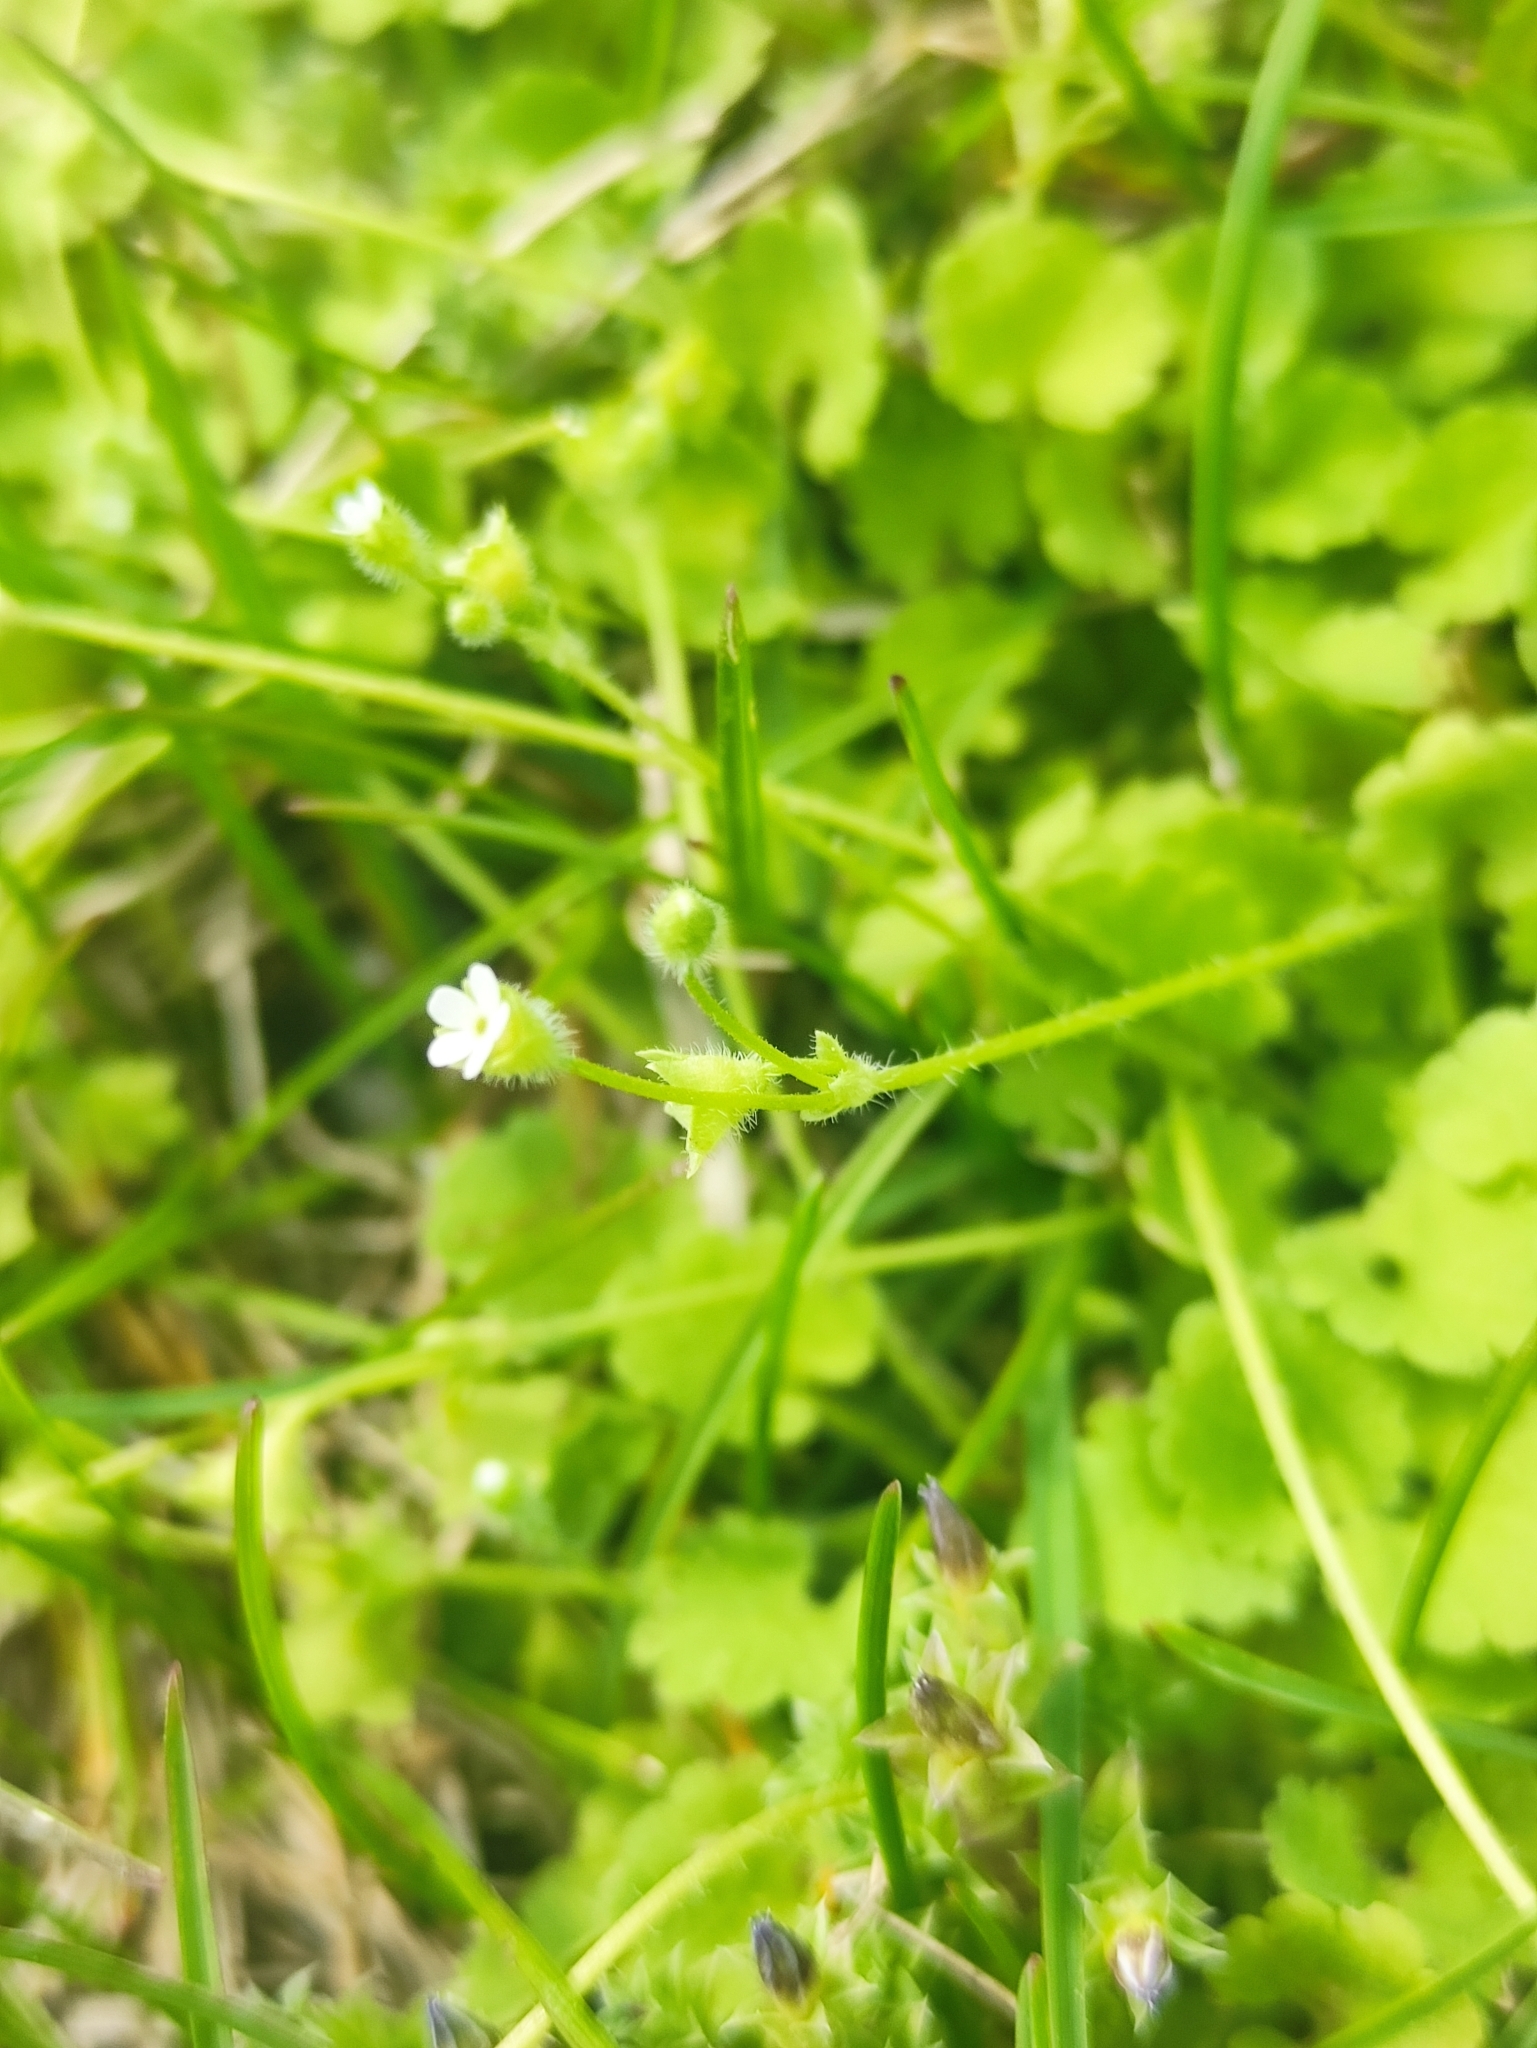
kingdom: Plantae
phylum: Tracheophyta
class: Magnoliopsida
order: Ericales
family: Primulaceae
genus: Androsace
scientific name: Androsace gmelinii
